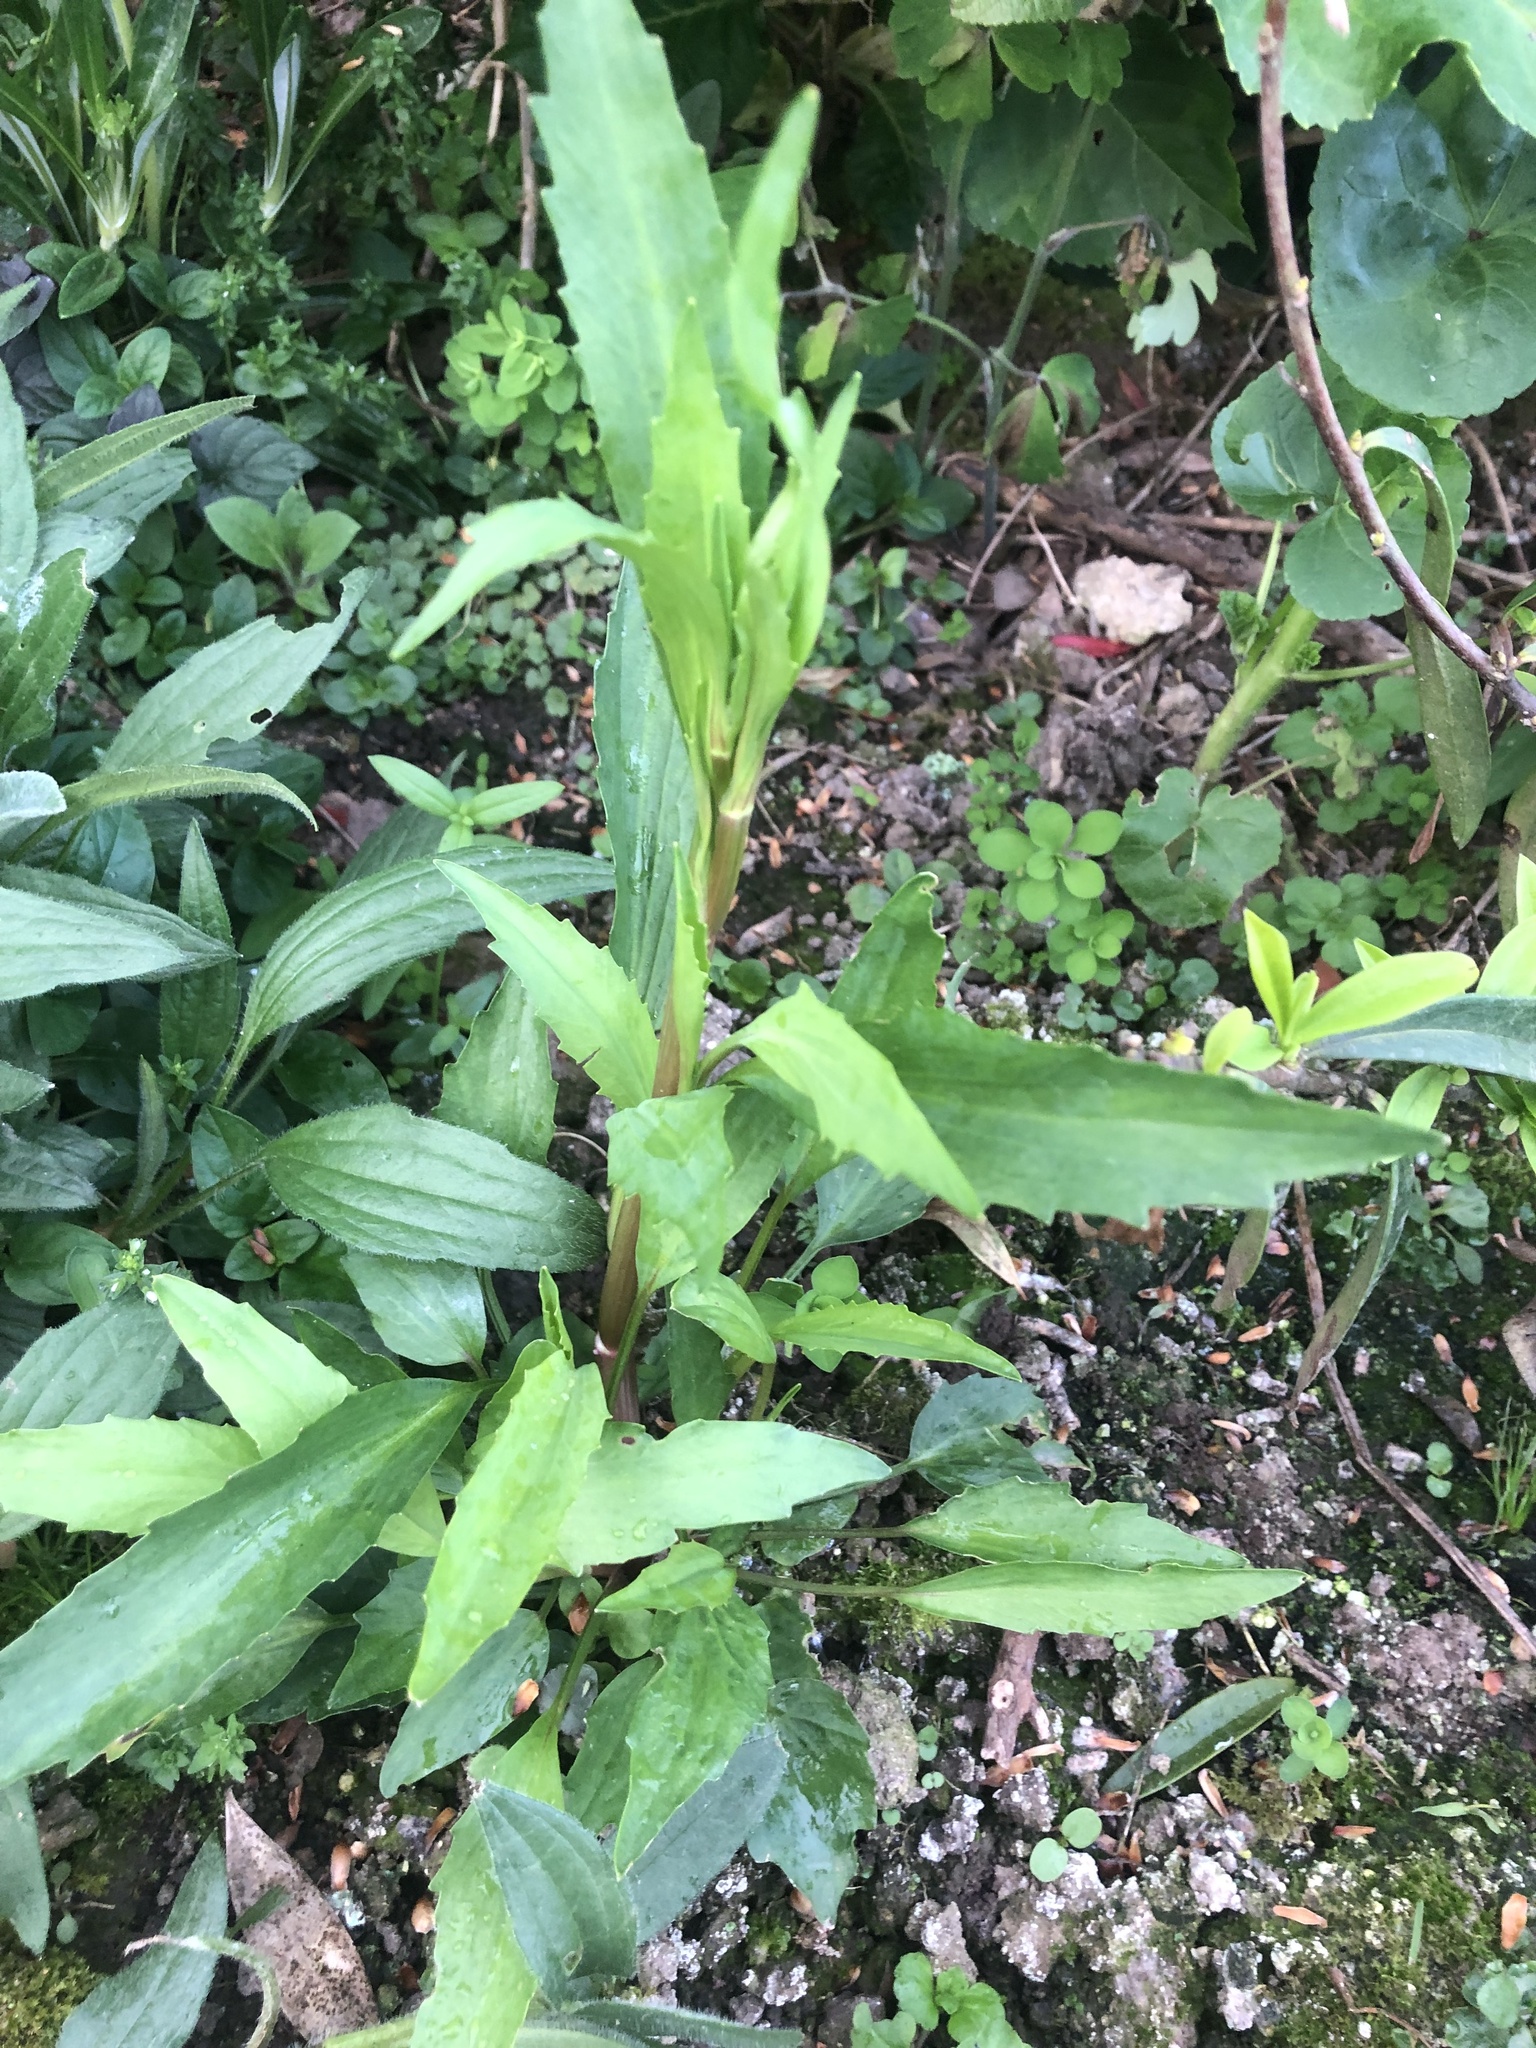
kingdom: Plantae
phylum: Tracheophyta
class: Magnoliopsida
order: Asterales
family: Asteraceae
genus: Symphyotrichum
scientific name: Symphyotrichum subulatum
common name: Annual saltmarsh aster
